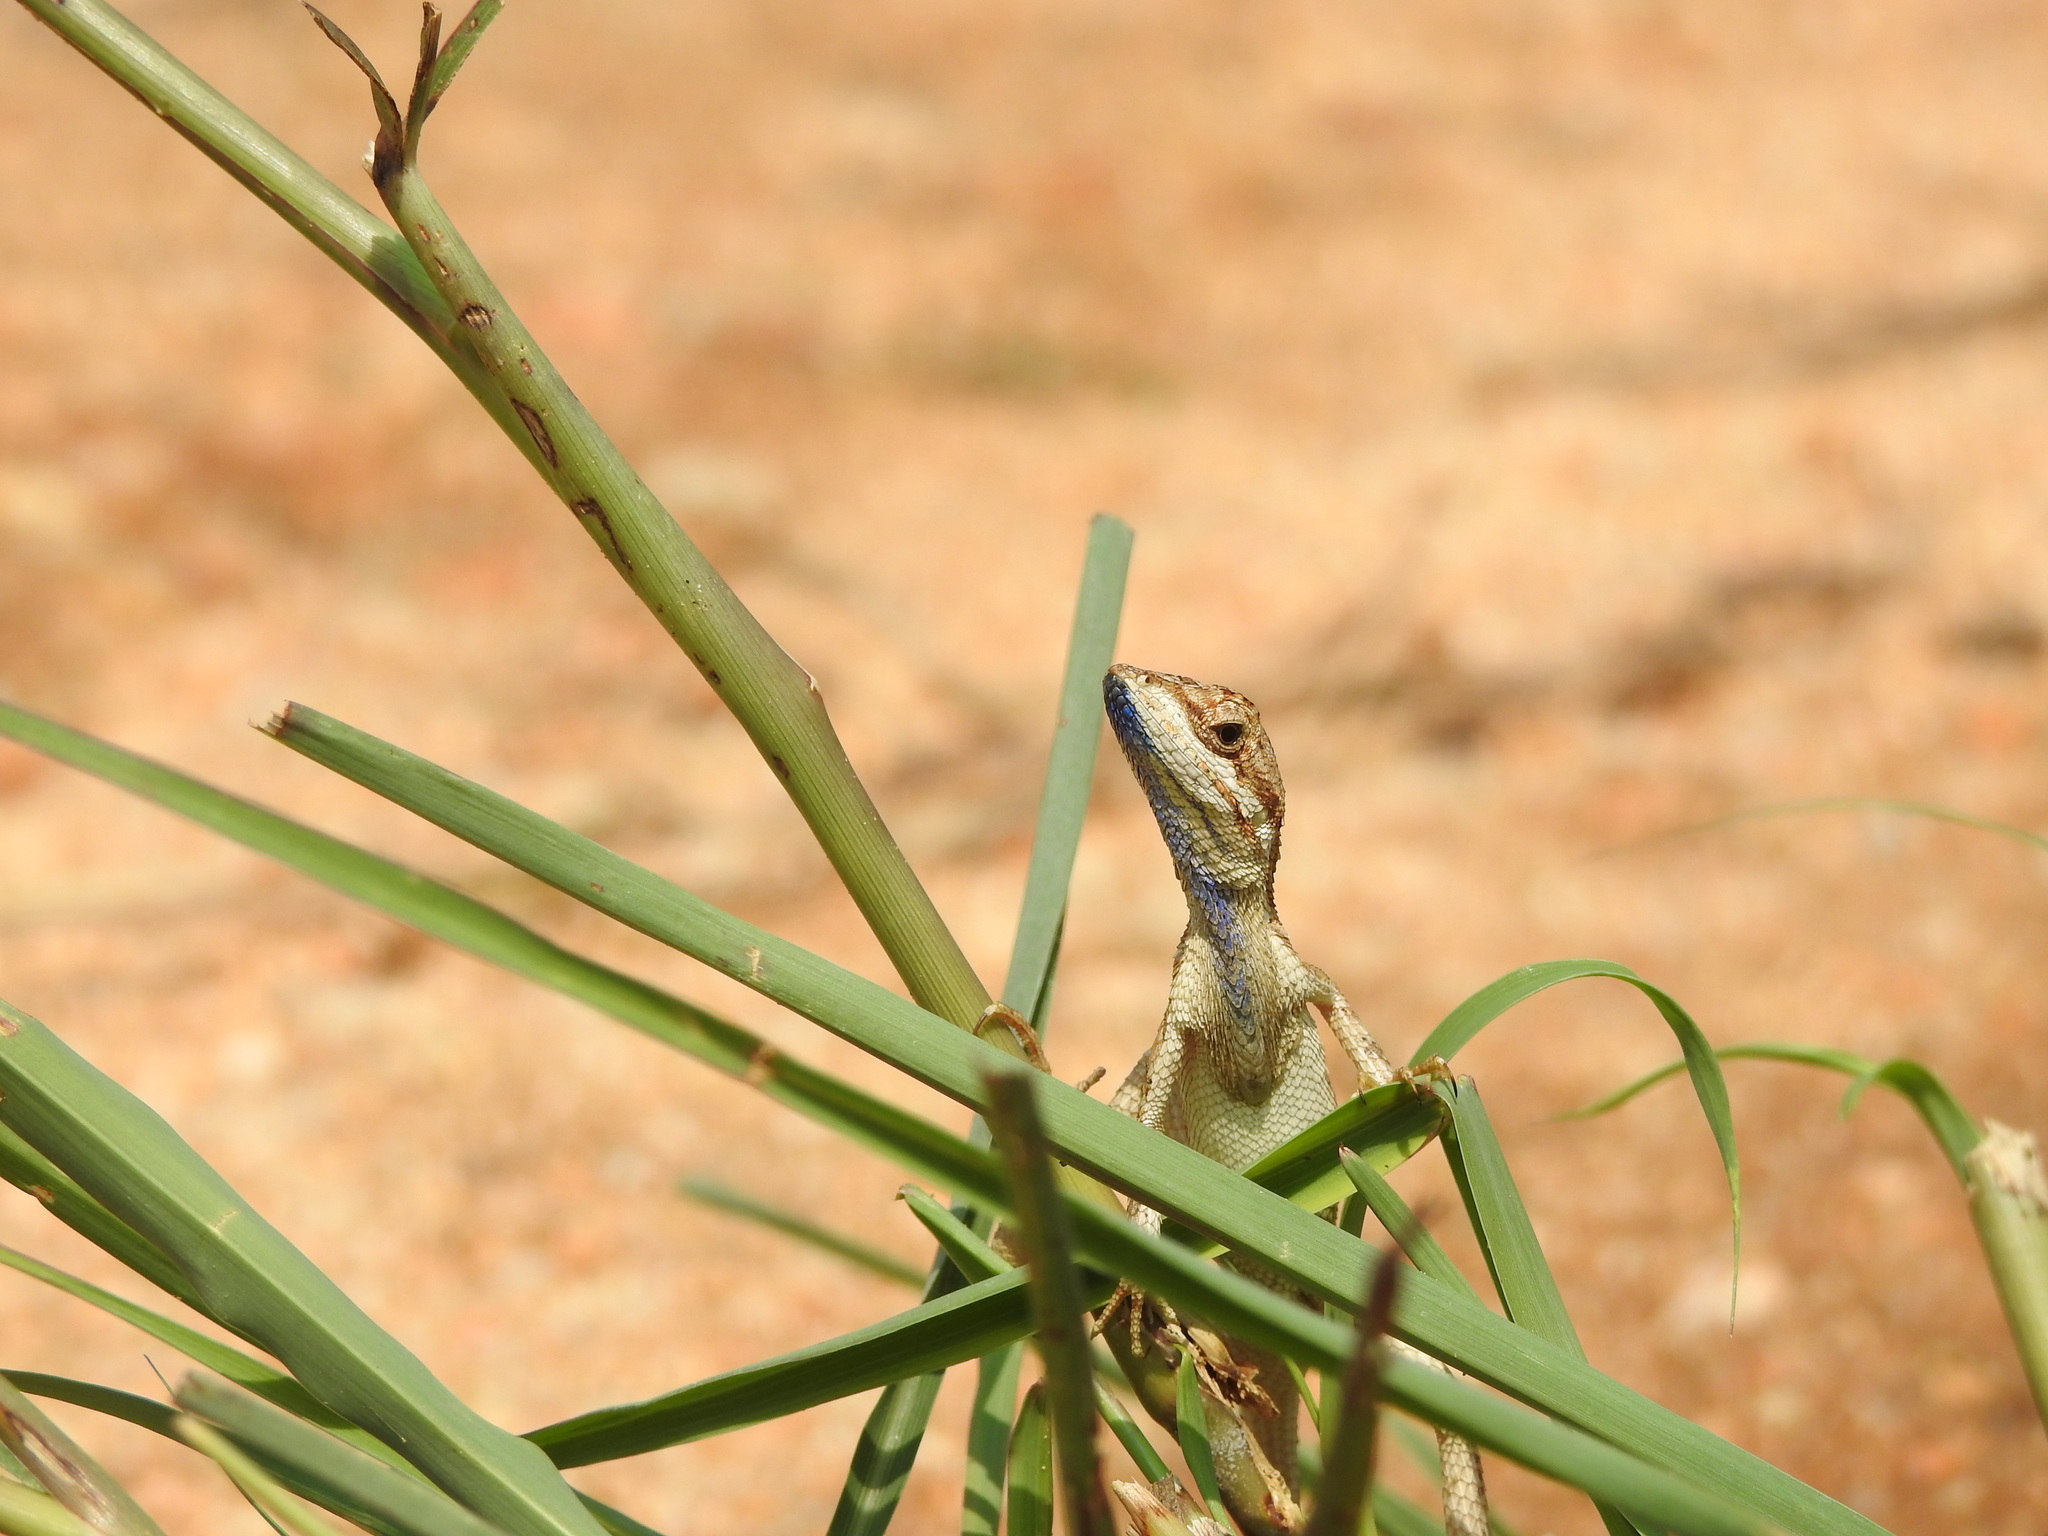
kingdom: Animalia
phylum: Chordata
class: Squamata
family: Agamidae
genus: Sitana
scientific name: Sitana ponticeriana
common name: Pondichéry fan throated lizard
